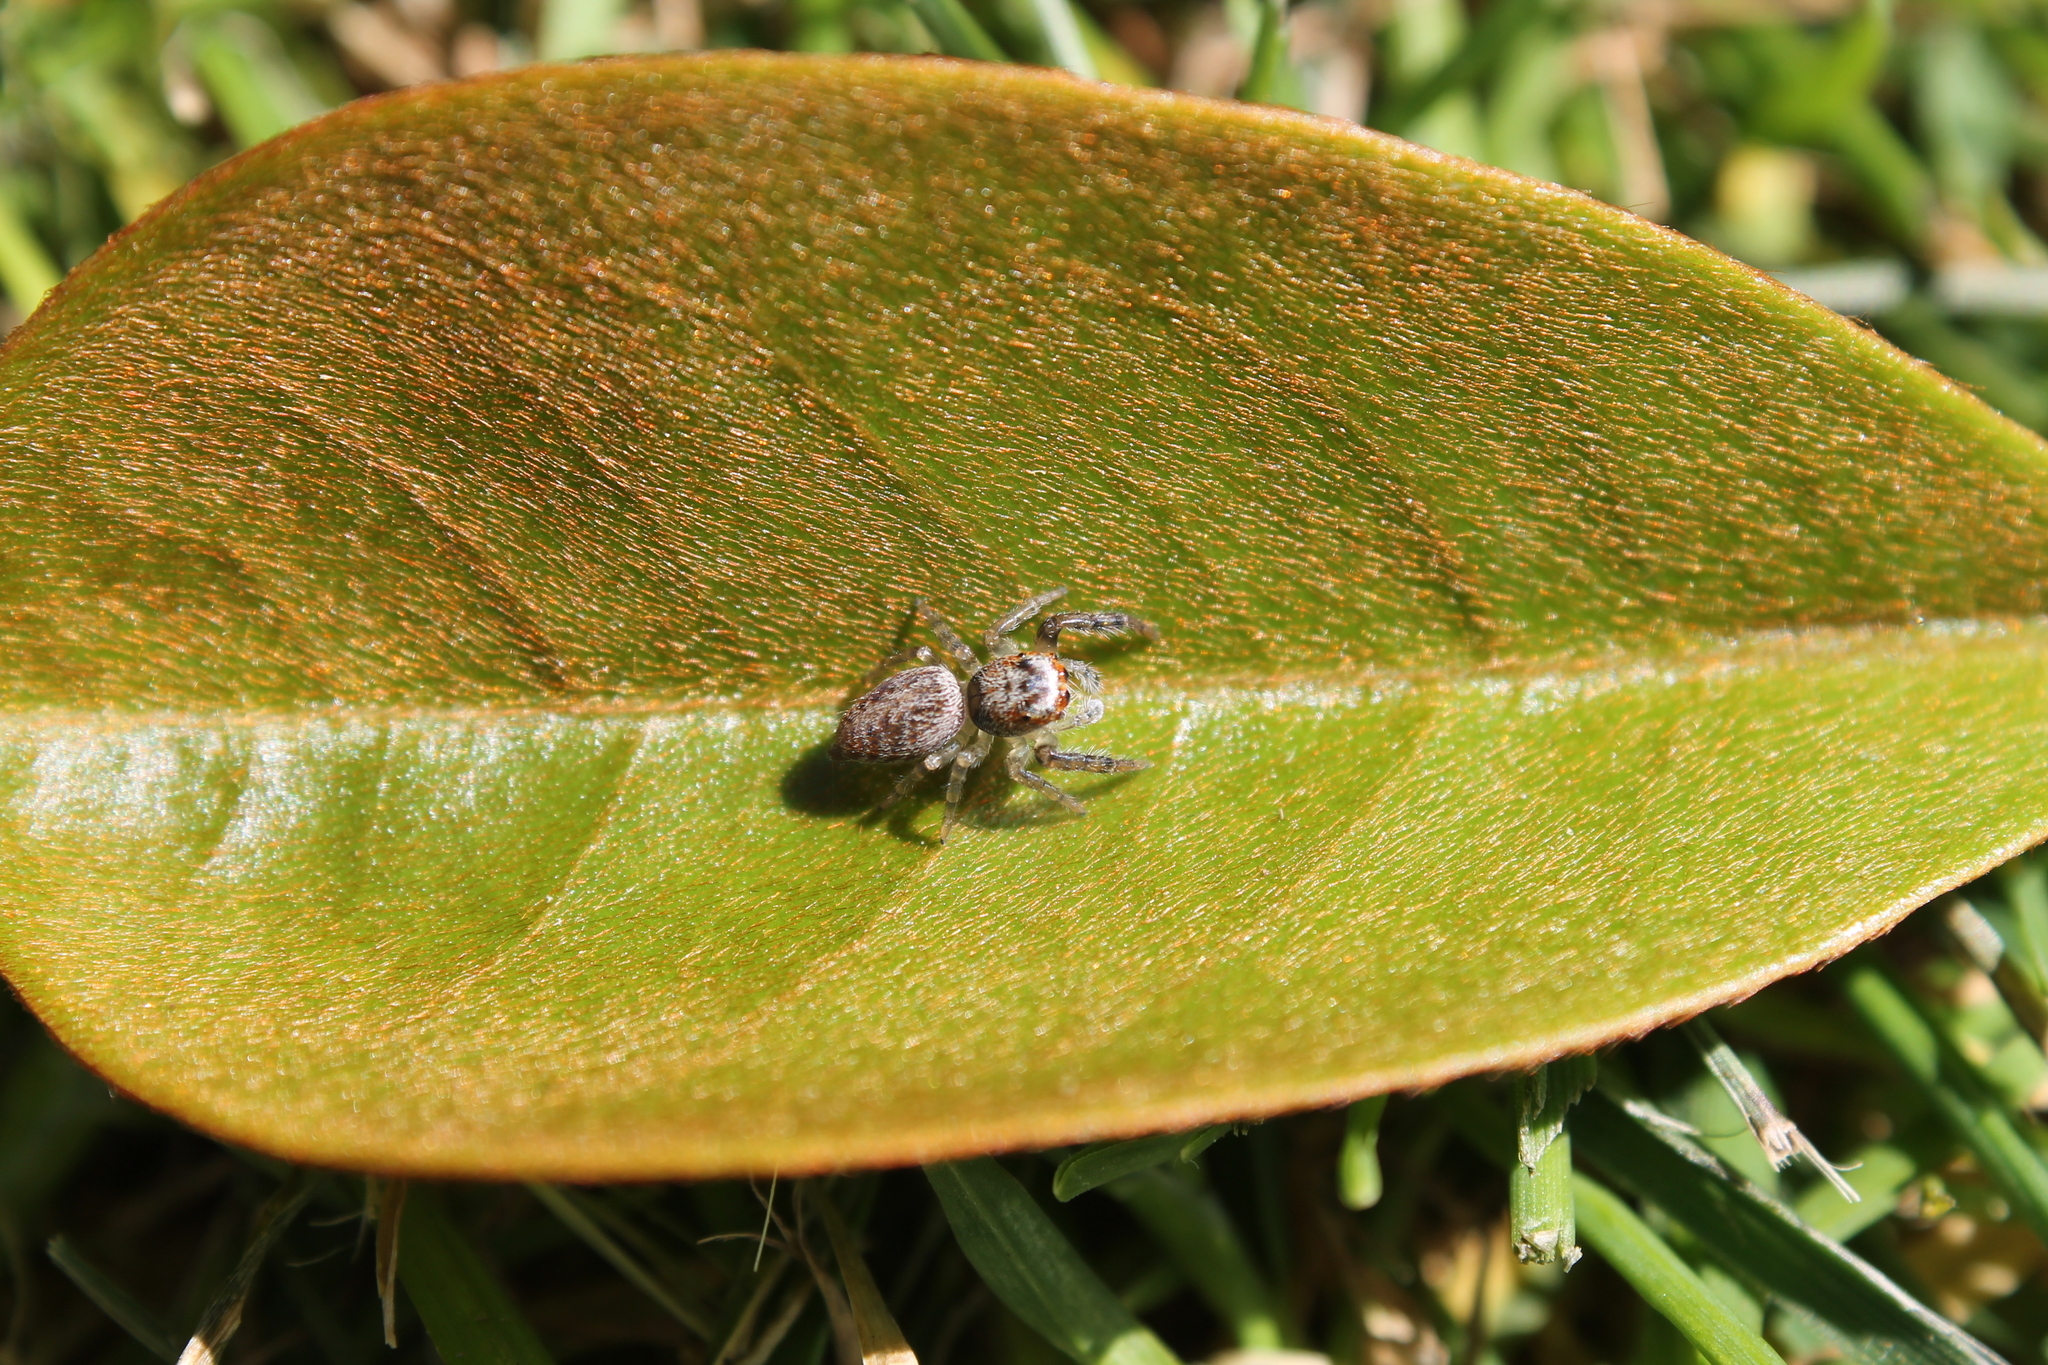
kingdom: Animalia
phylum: Arthropoda
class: Arachnida
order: Araneae
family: Salticidae
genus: Opisthoncus
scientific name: Opisthoncus polyphemus
